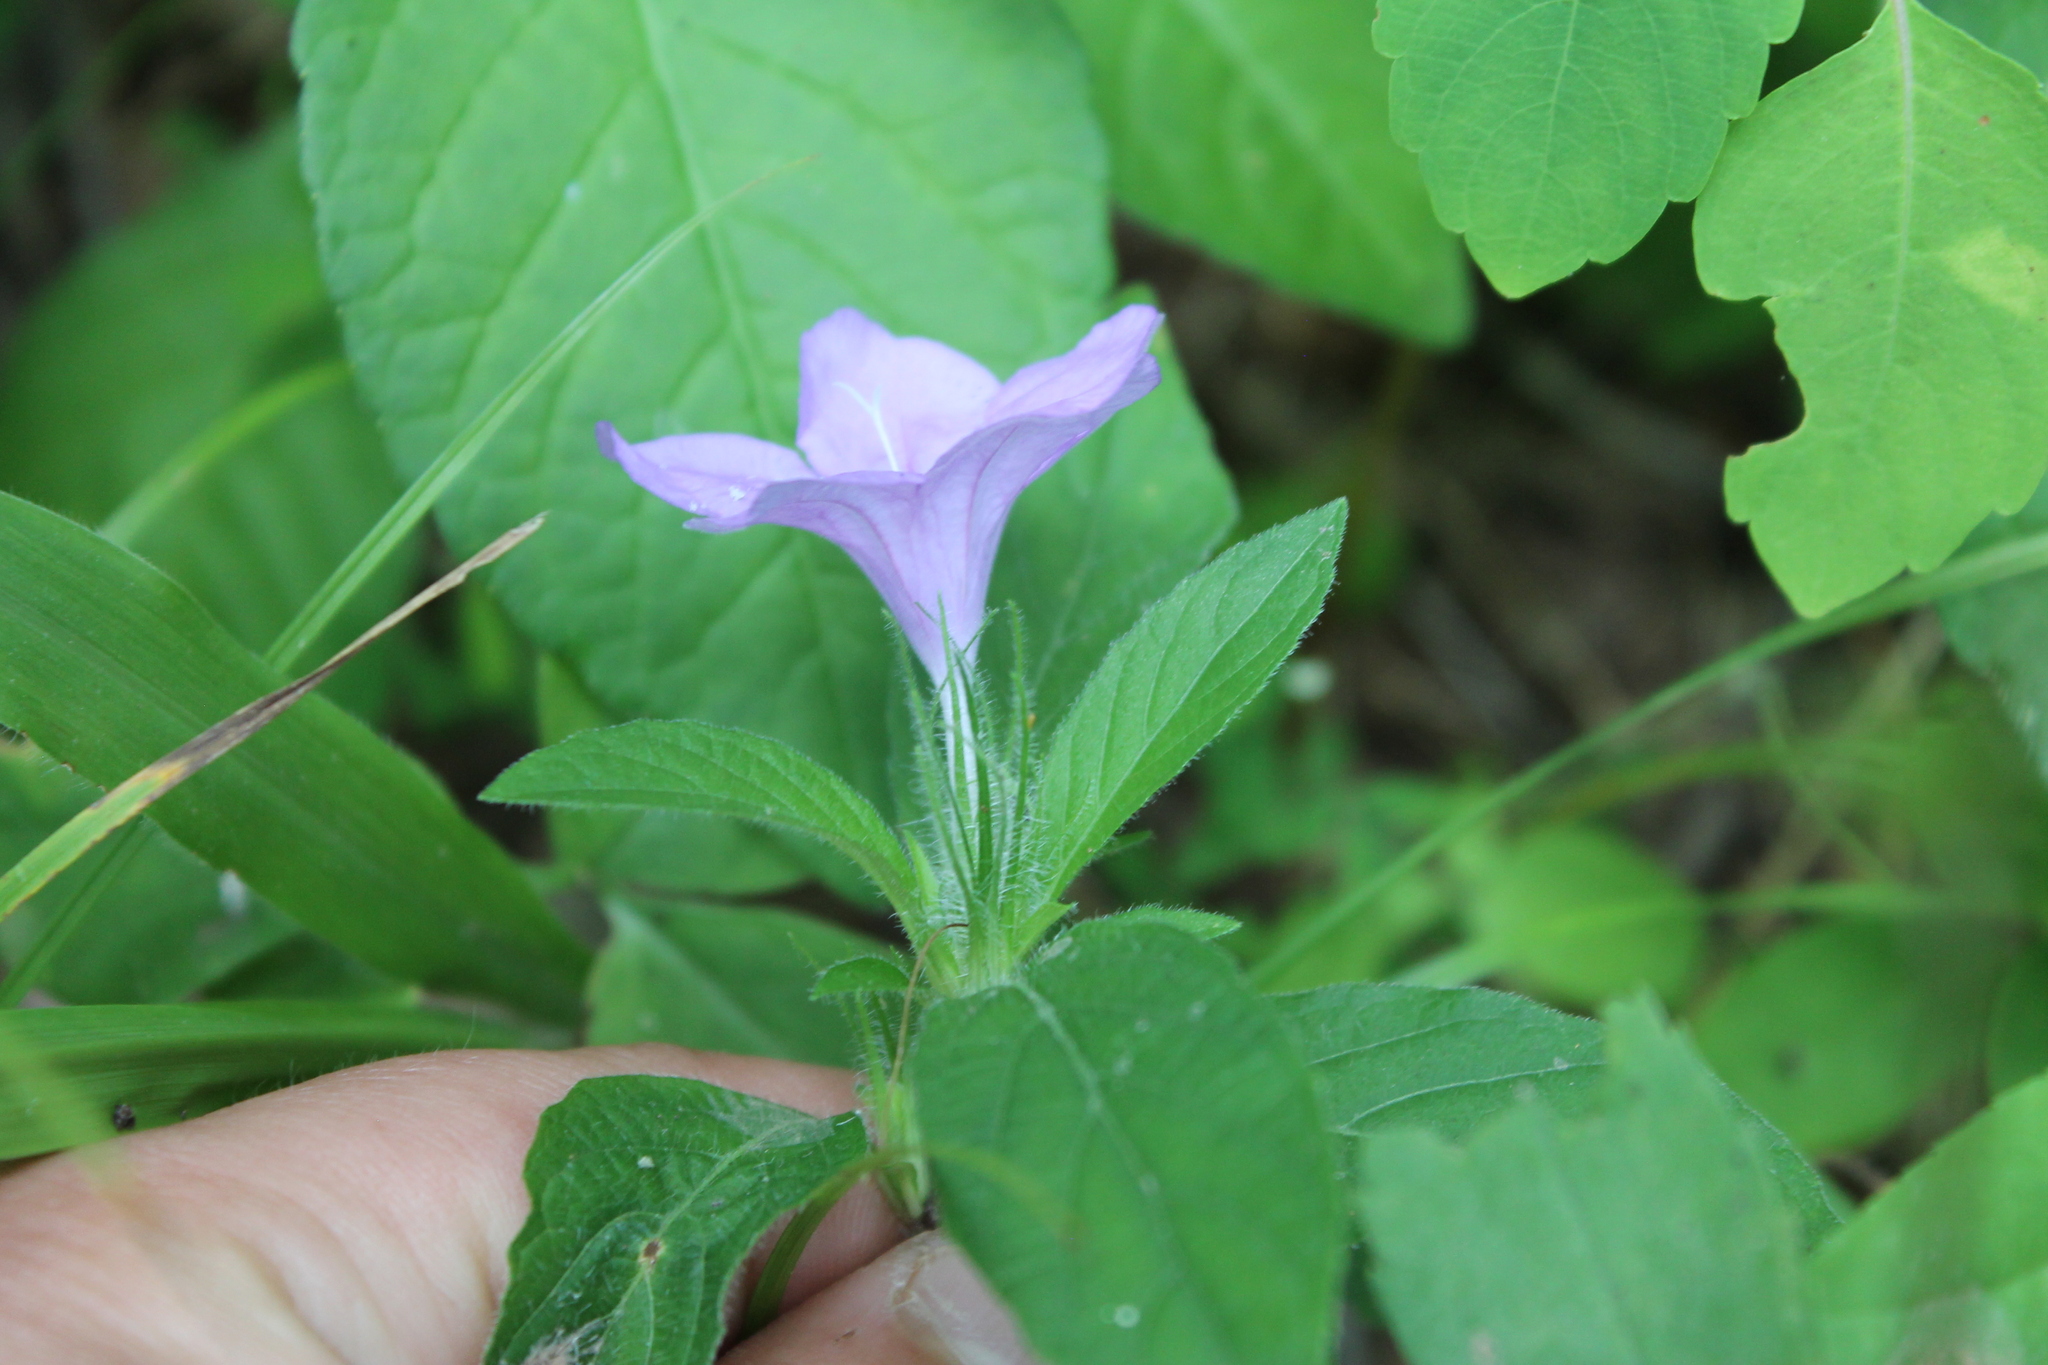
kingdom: Plantae
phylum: Tracheophyta
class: Magnoliopsida
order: Lamiales
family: Acanthaceae
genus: Ruellia
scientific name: Ruellia caroliniensis
